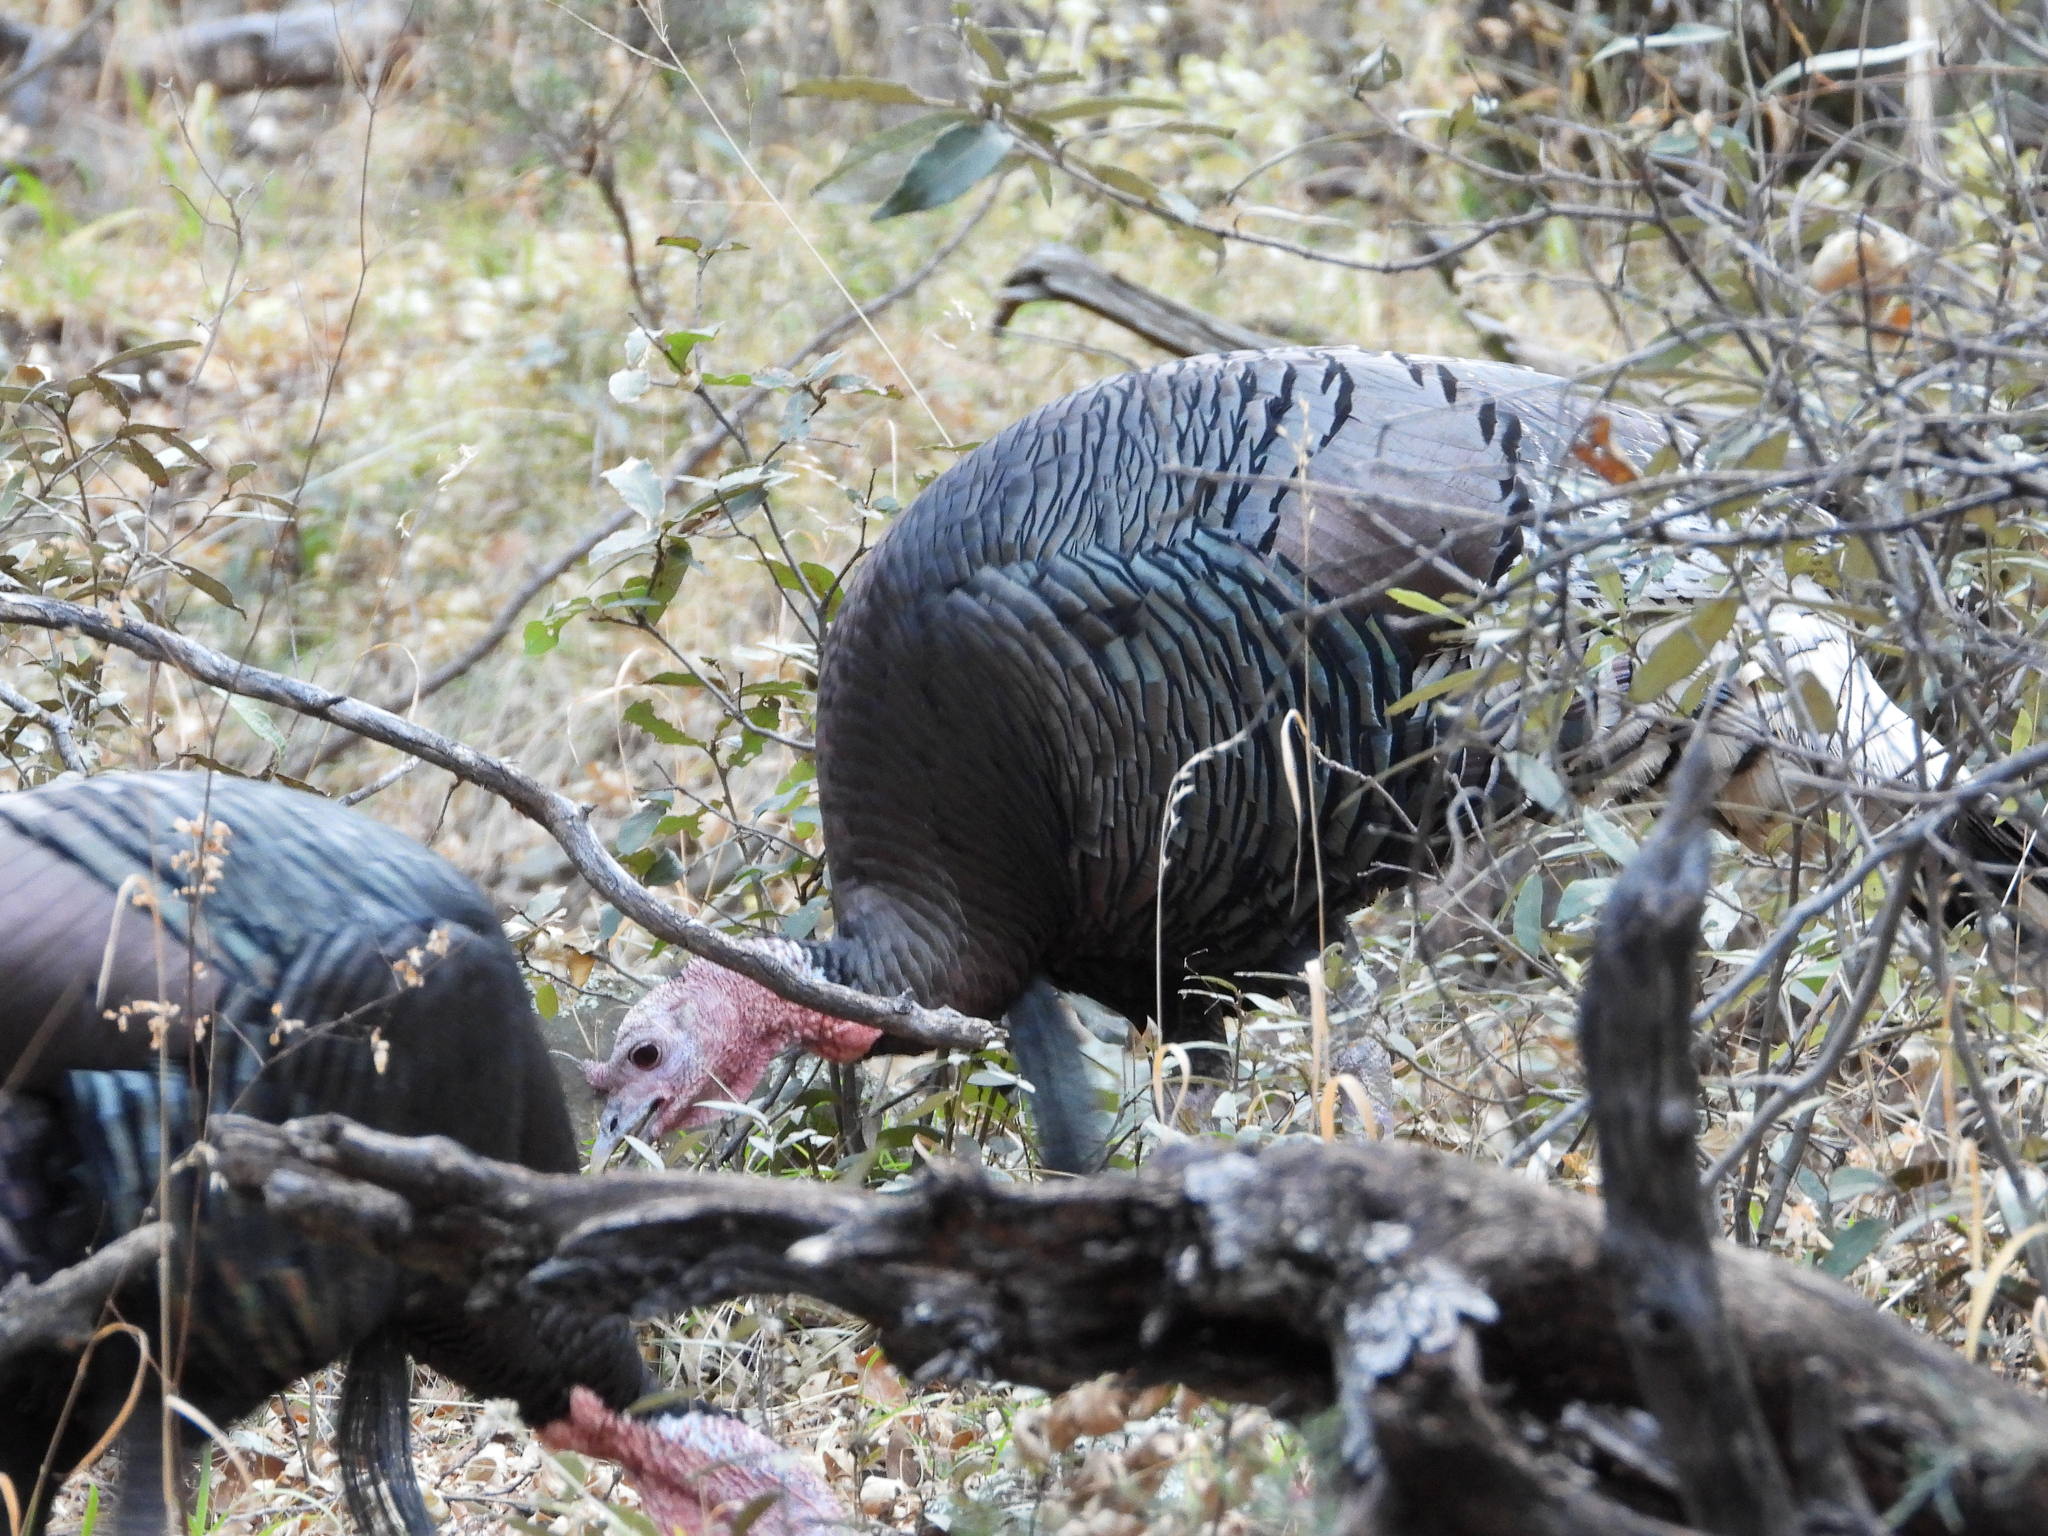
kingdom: Animalia
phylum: Chordata
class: Aves
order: Galliformes
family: Phasianidae
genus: Meleagris
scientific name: Meleagris gallopavo
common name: Wild turkey
